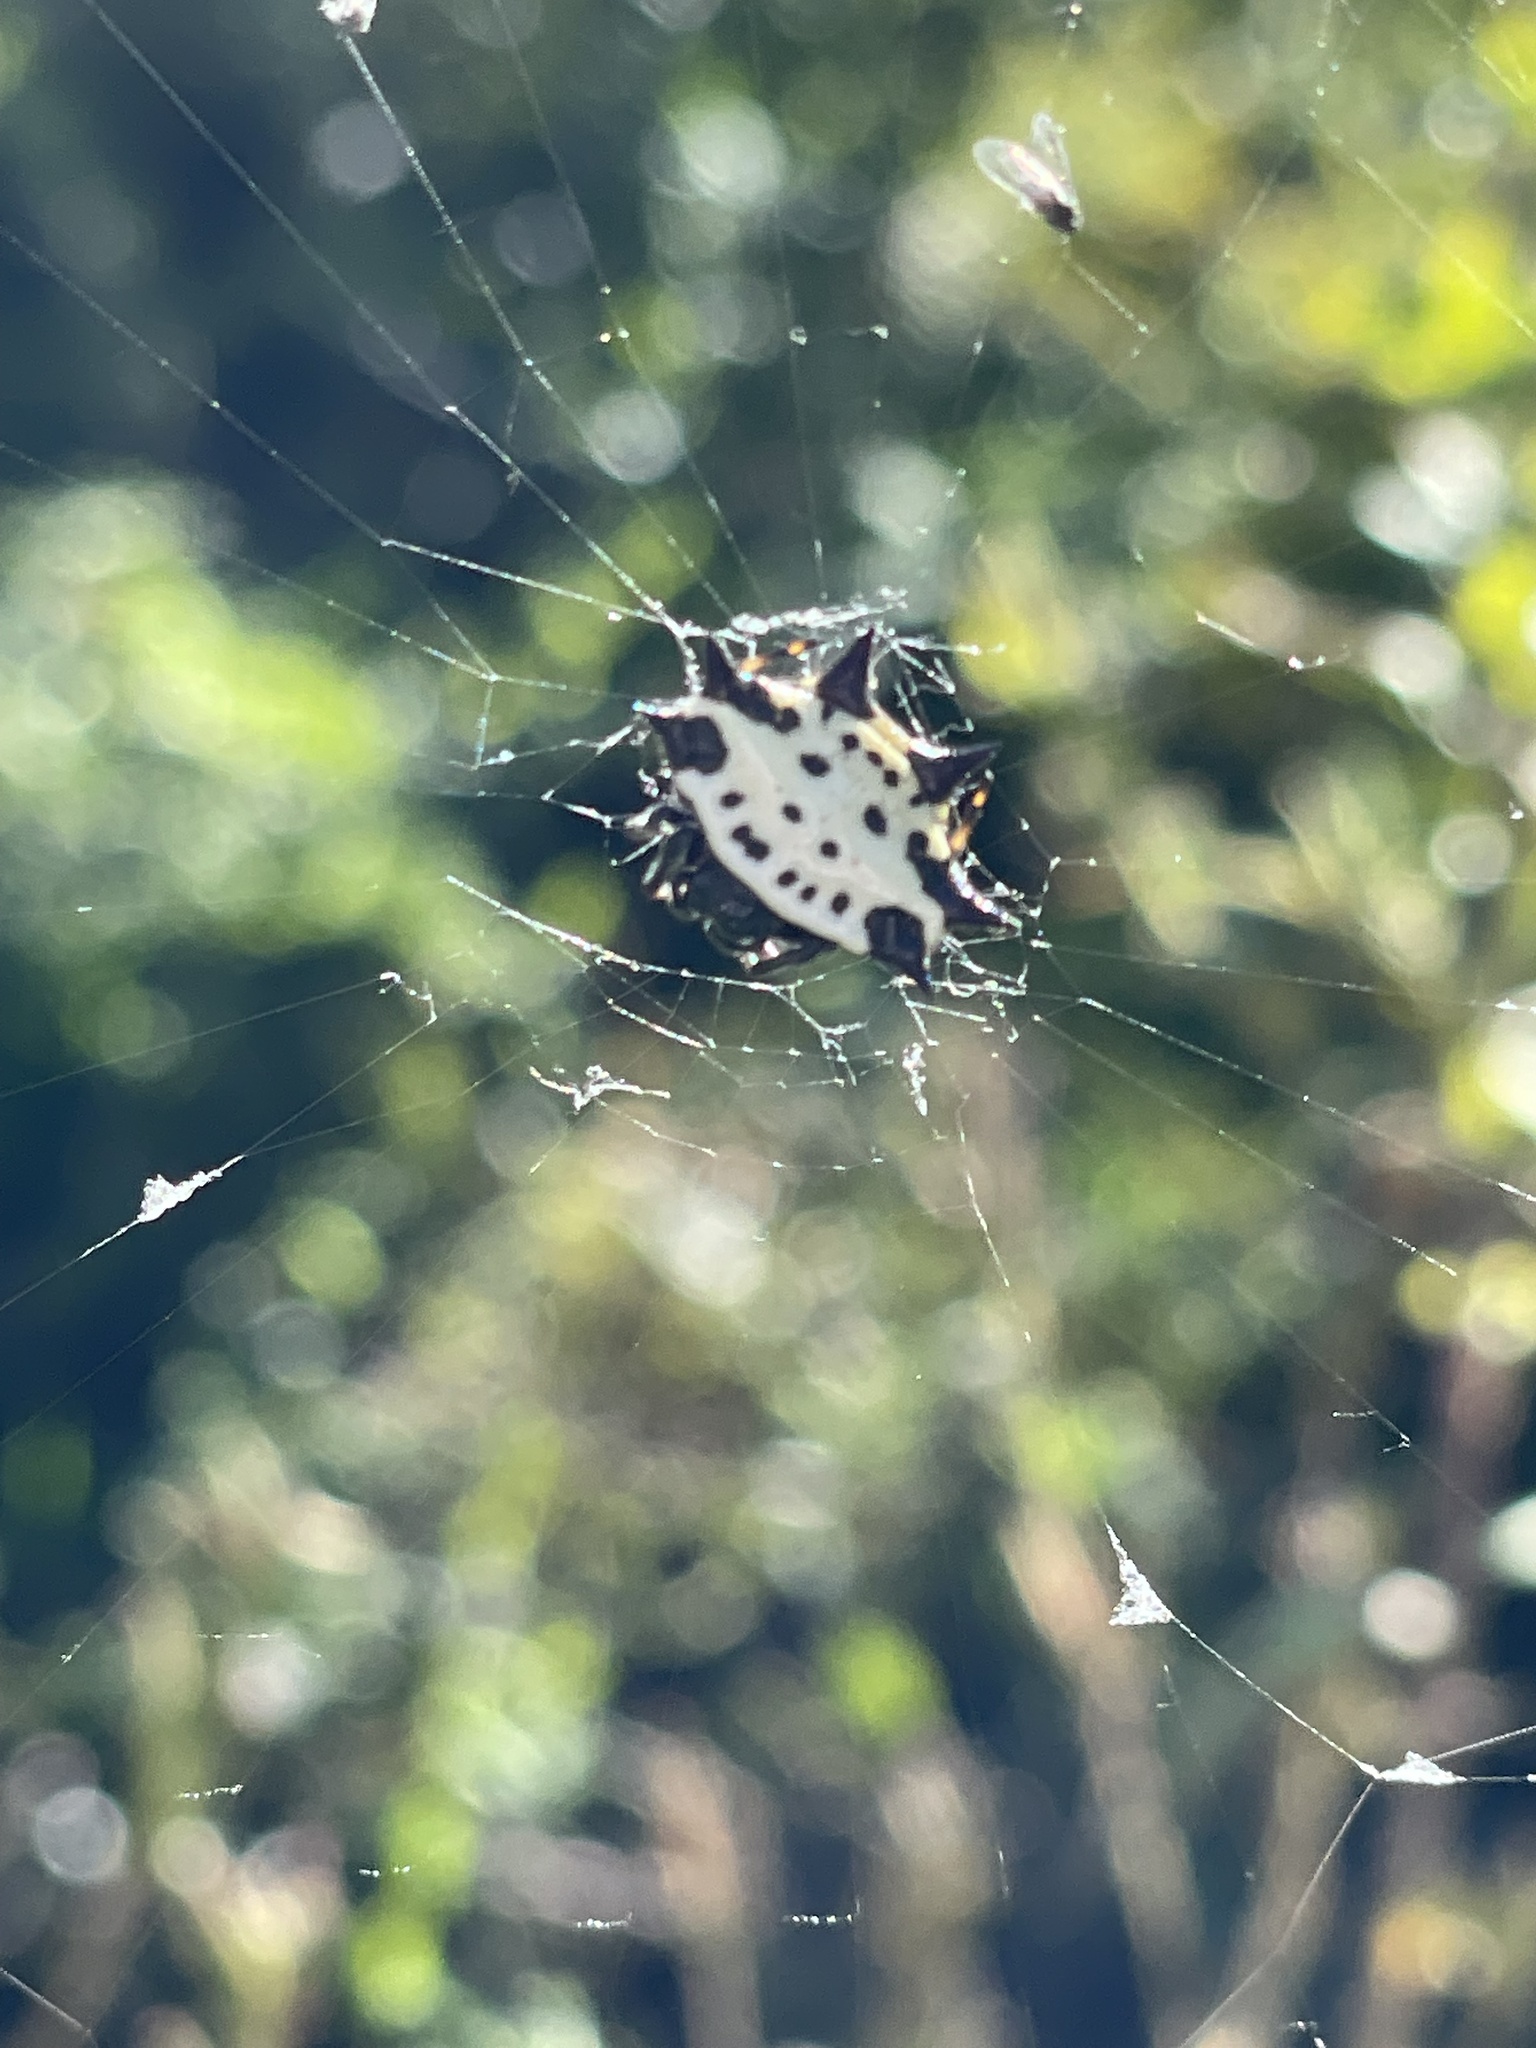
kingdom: Animalia
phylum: Arthropoda
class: Arachnida
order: Araneae
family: Araneidae
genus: Gasteracantha
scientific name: Gasteracantha cancriformis
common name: Orb weavers
